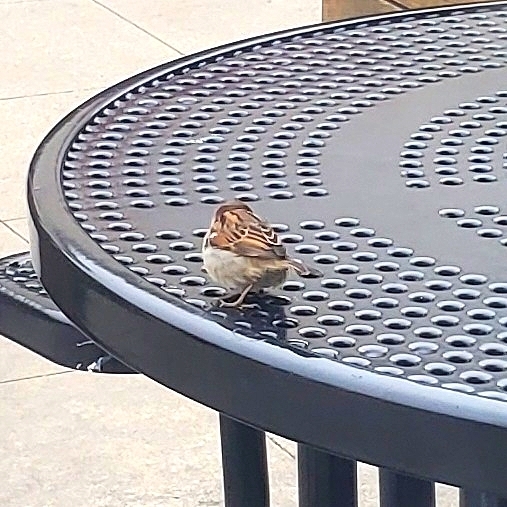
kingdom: Animalia
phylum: Chordata
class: Aves
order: Passeriformes
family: Passeridae
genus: Passer
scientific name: Passer domesticus
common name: House sparrow
